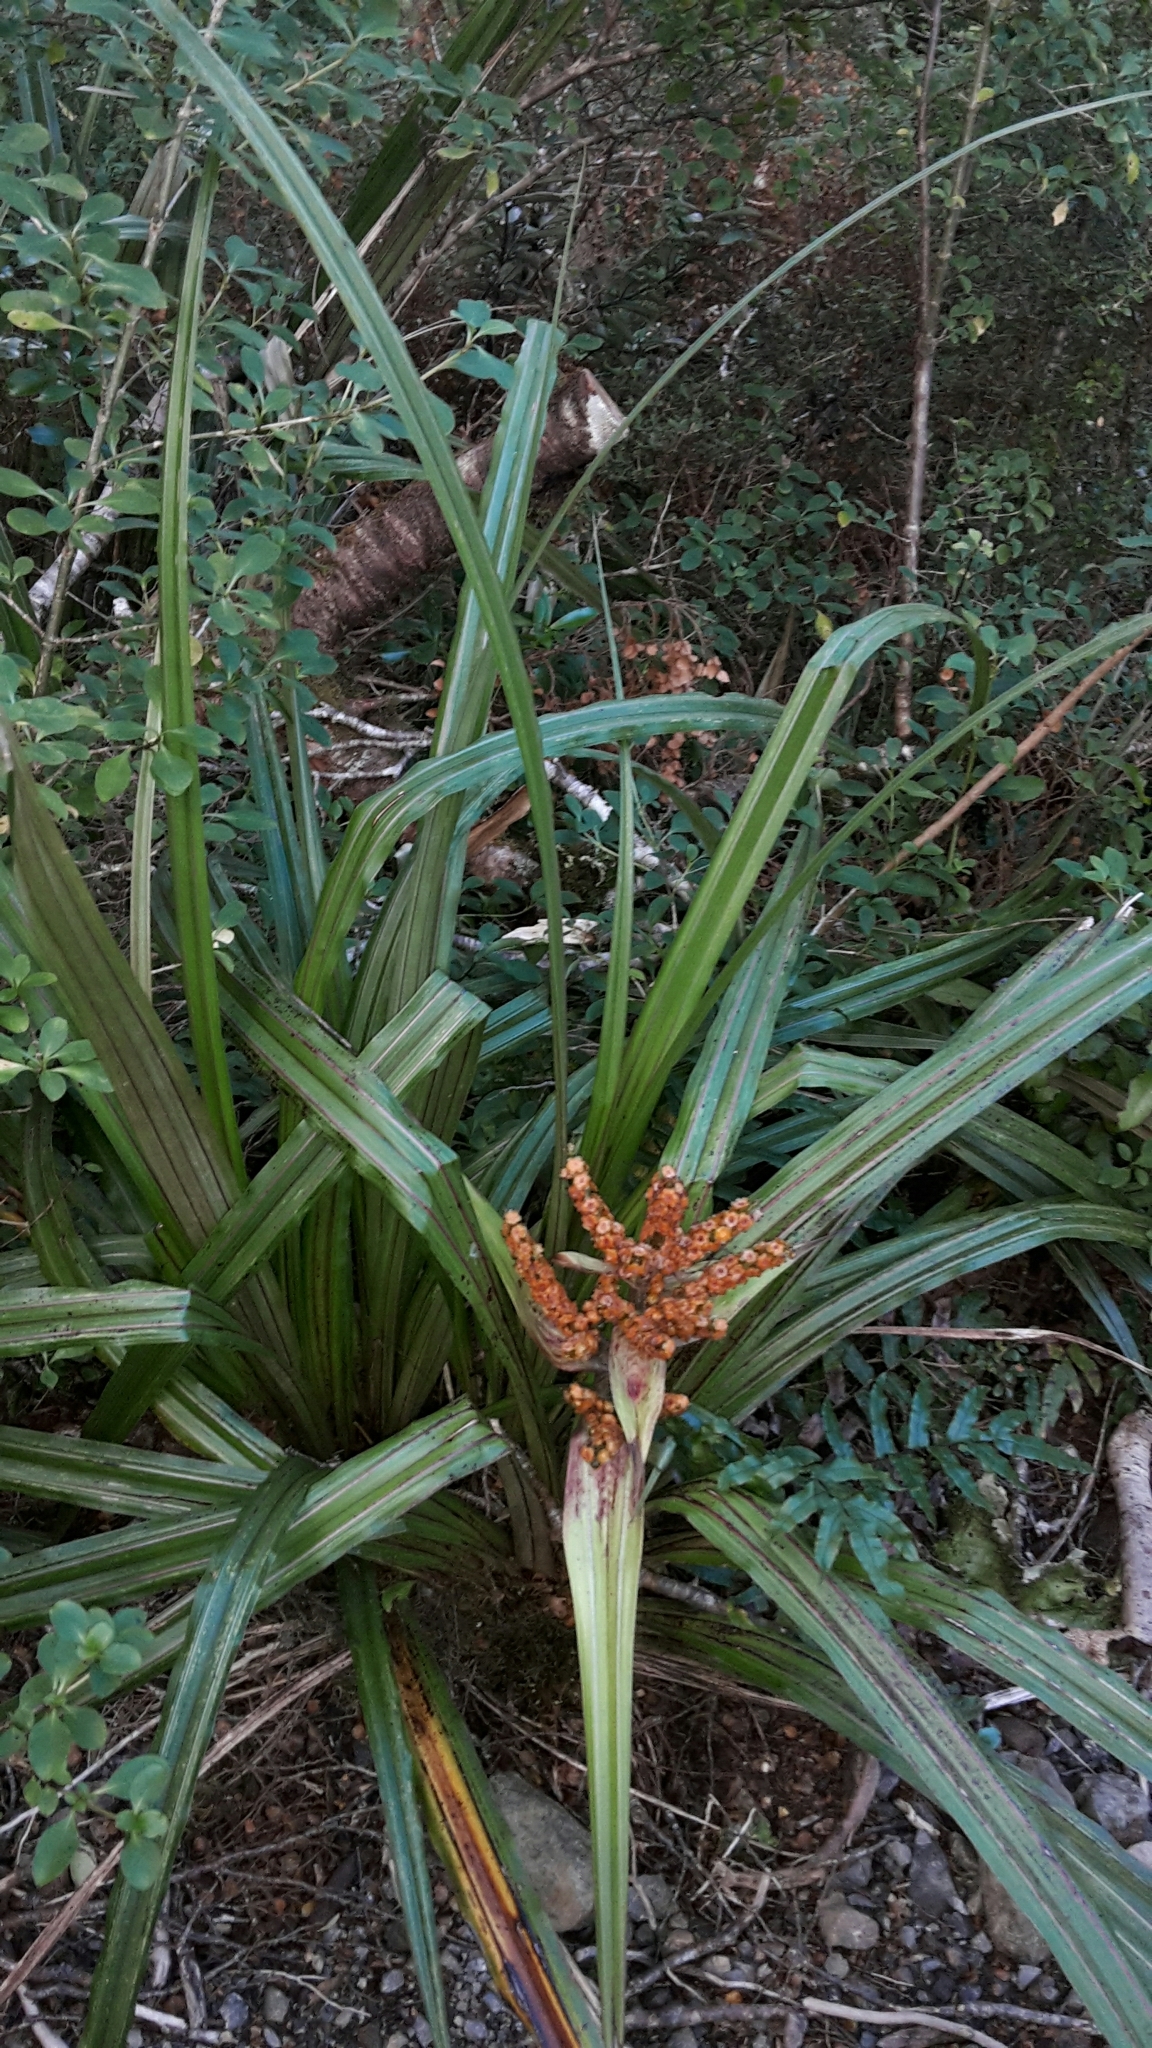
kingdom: Plantae
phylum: Tracheophyta
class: Liliopsida
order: Asparagales
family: Asteliaceae
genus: Astelia
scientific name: Astelia fragrans
